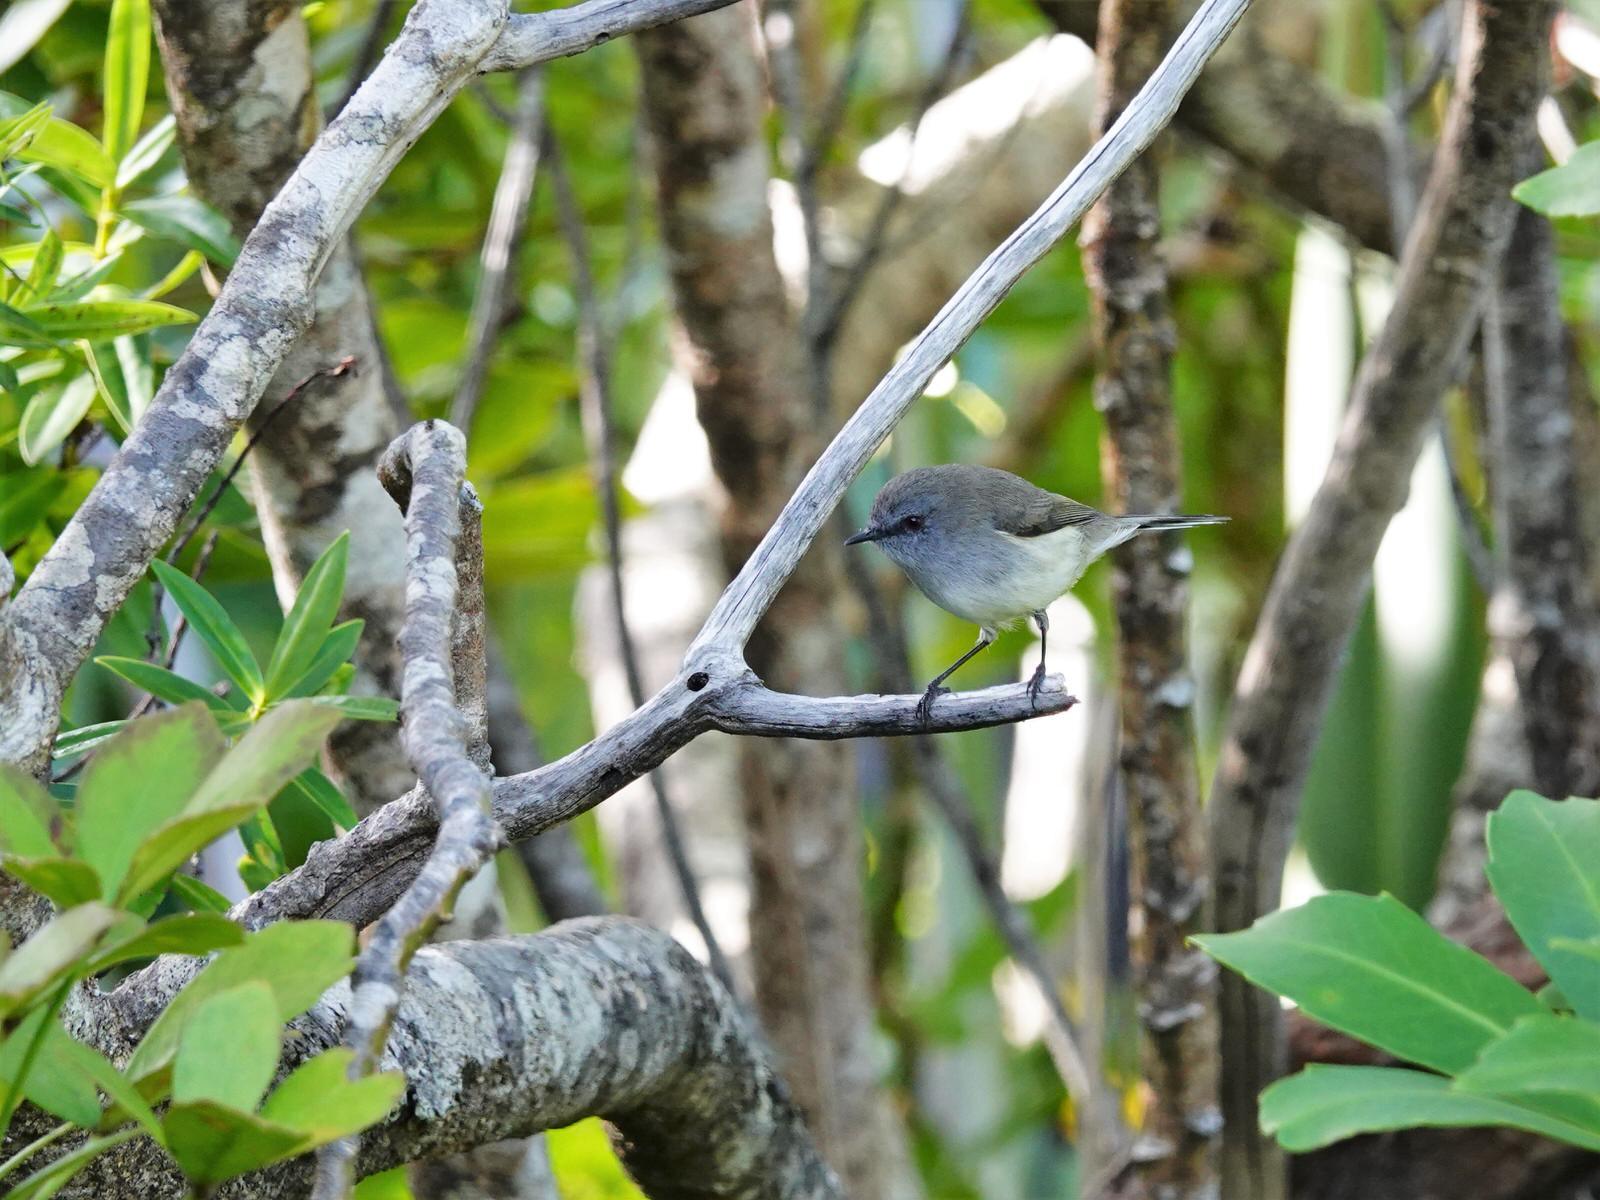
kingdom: Animalia
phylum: Chordata
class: Aves
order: Passeriformes
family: Acanthizidae
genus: Gerygone
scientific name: Gerygone igata
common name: Grey gerygone
